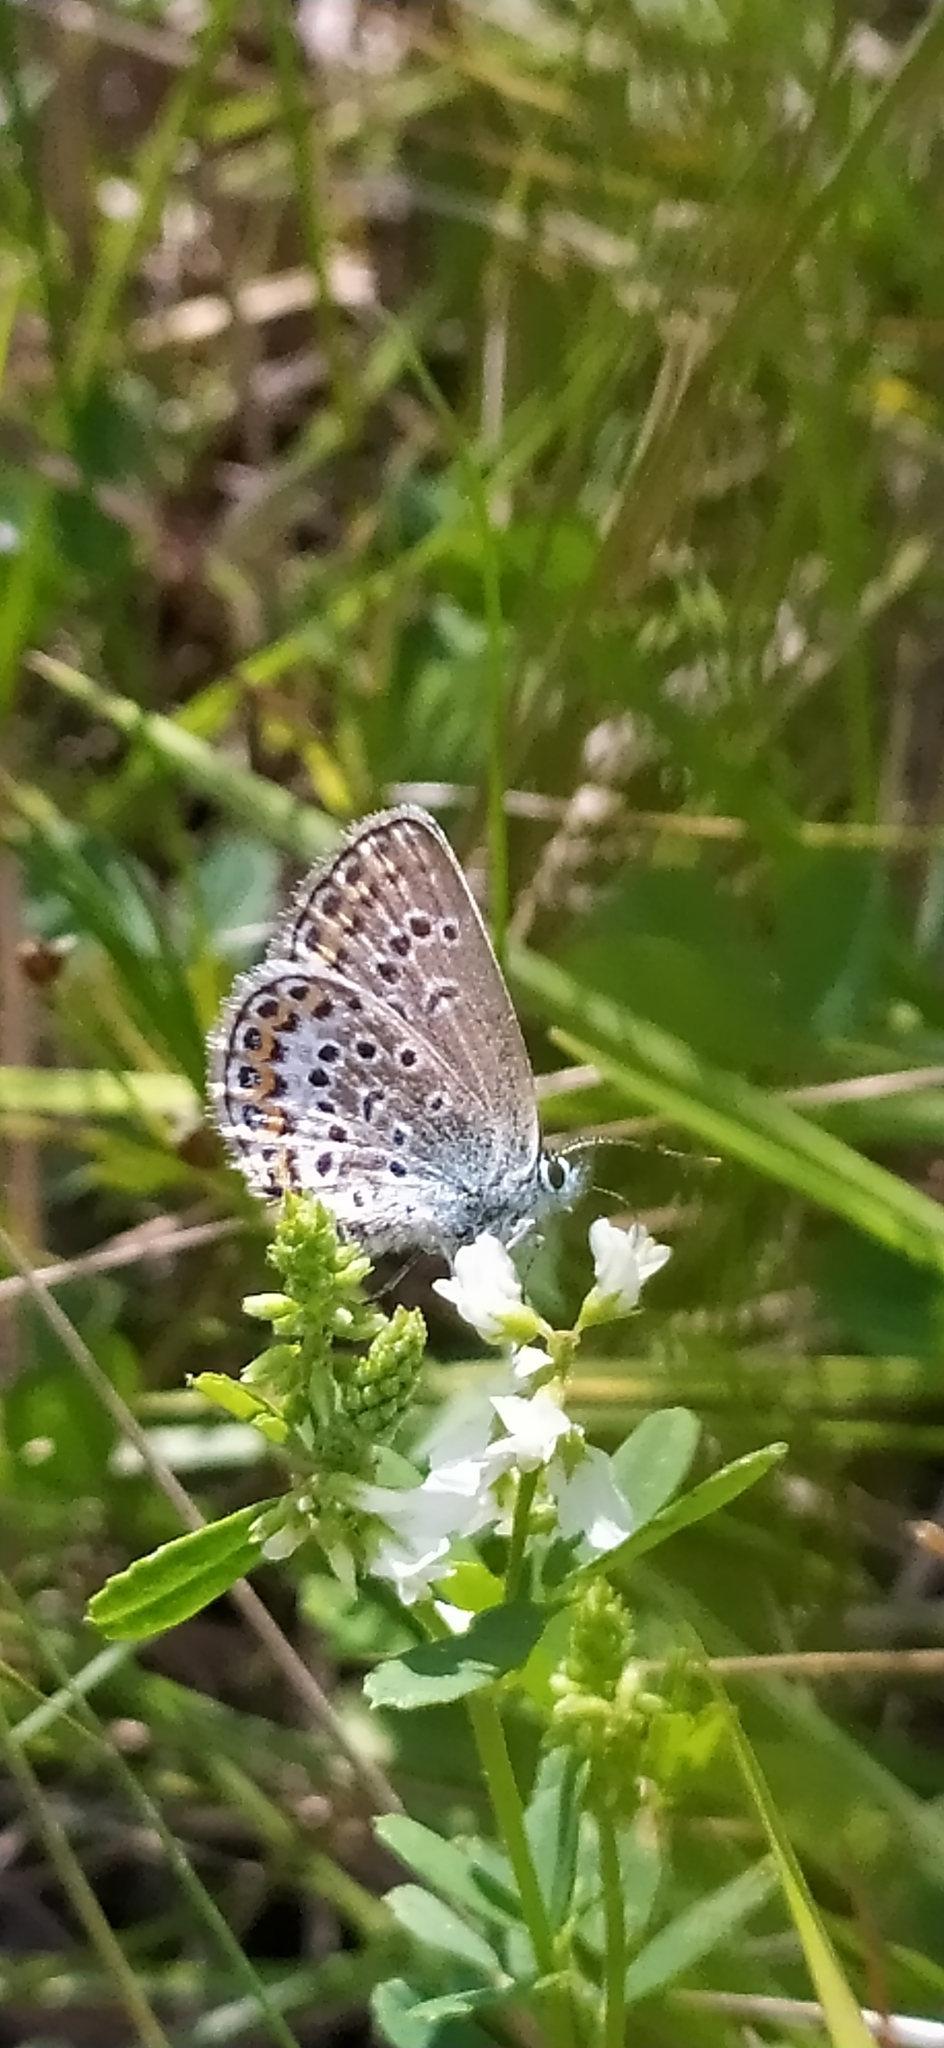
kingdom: Animalia
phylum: Arthropoda
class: Insecta
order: Lepidoptera
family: Lycaenidae
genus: Plebejus
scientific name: Plebejus argus
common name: Silver-studded blue
